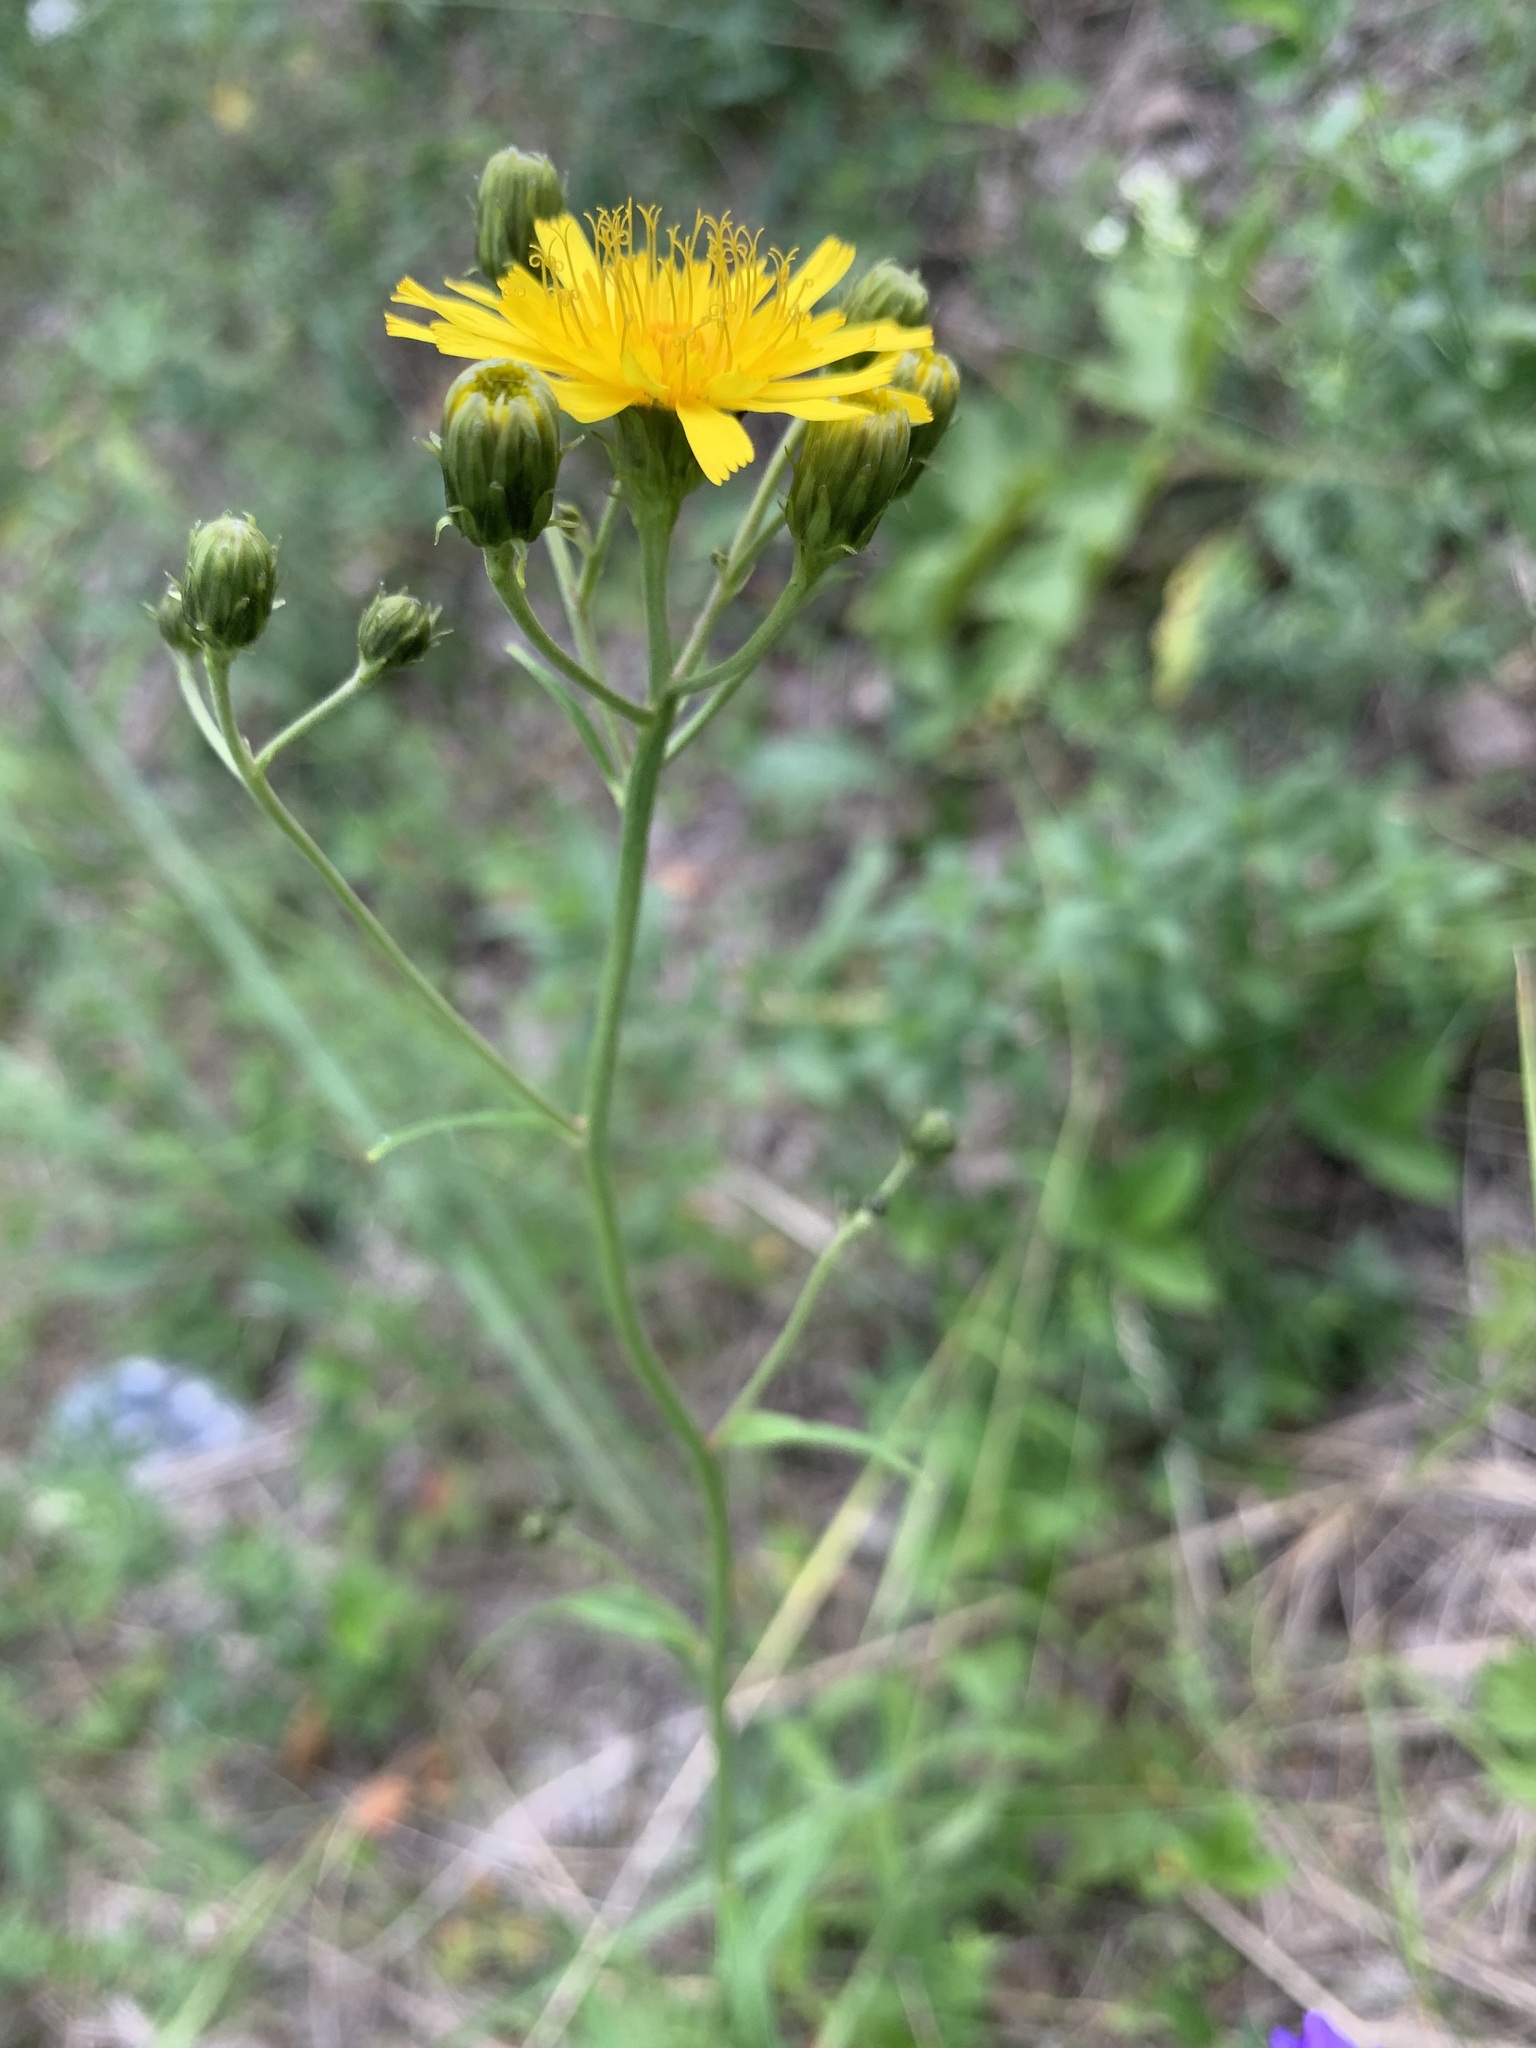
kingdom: Plantae
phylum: Tracheophyta
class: Magnoliopsida
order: Asterales
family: Asteraceae
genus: Hieracium
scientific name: Hieracium umbellatum
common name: Northern hawkweed
